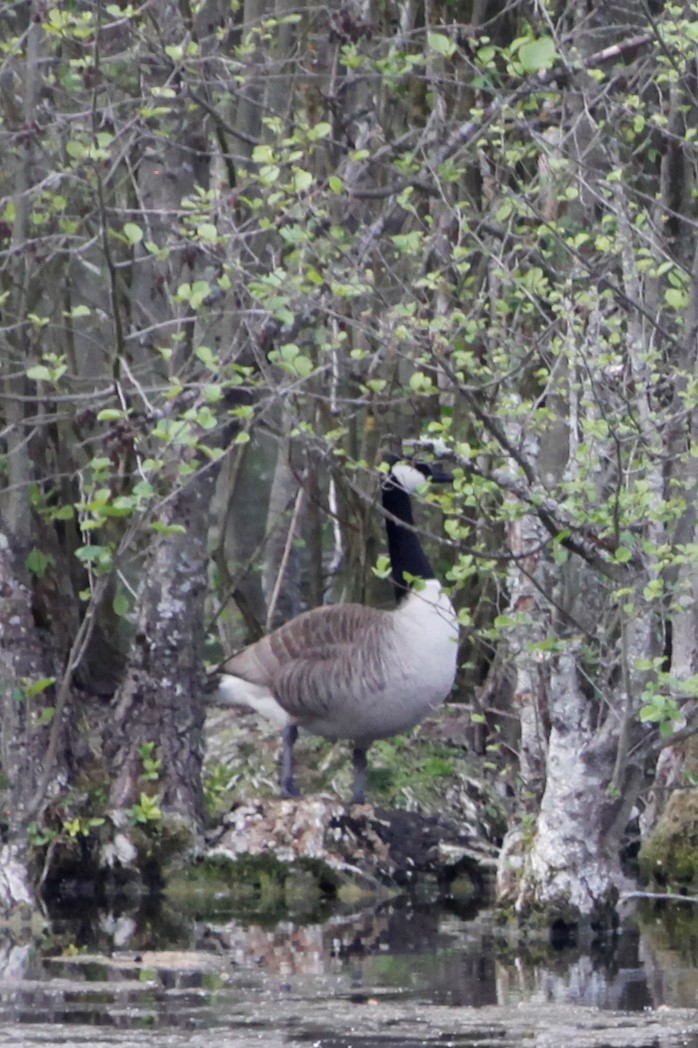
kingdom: Animalia
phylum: Chordata
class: Aves
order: Anseriformes
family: Anatidae
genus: Branta
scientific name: Branta canadensis
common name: Canada goose
